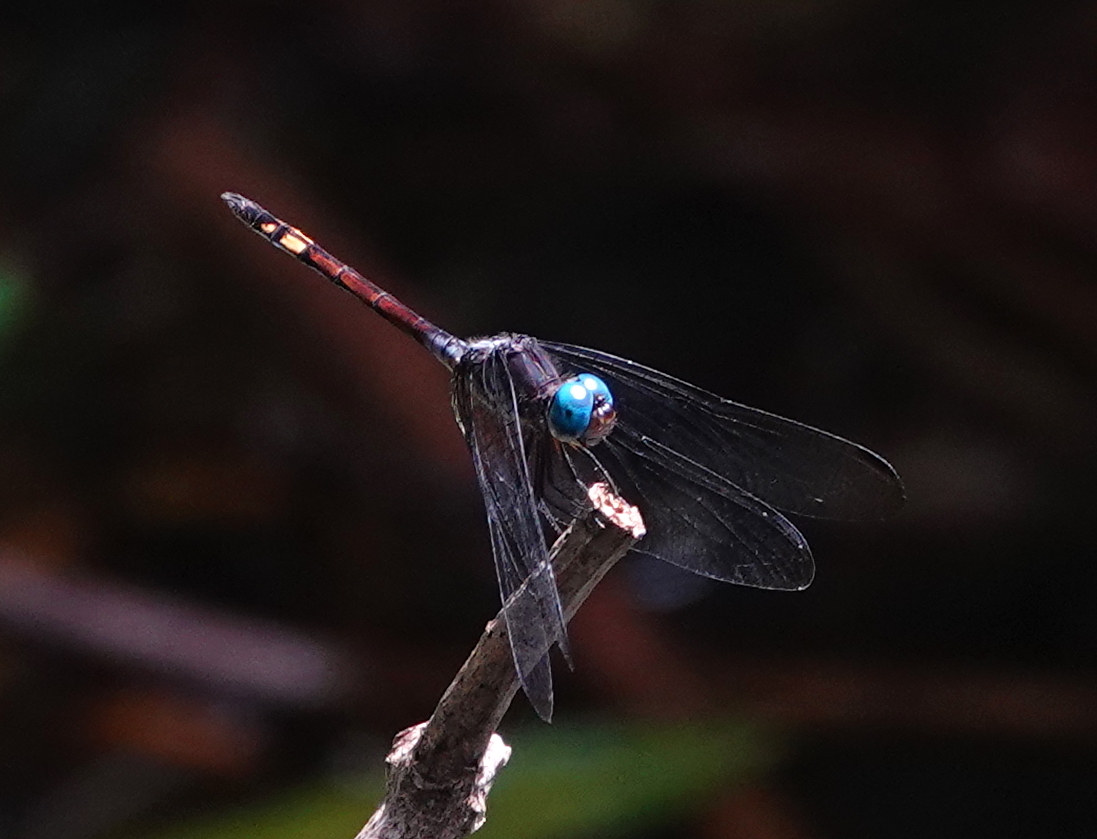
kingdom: Animalia
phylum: Arthropoda
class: Insecta
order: Odonata
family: Libellulidae
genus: Micrathyria
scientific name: Micrathyria atra
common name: Black dasher
